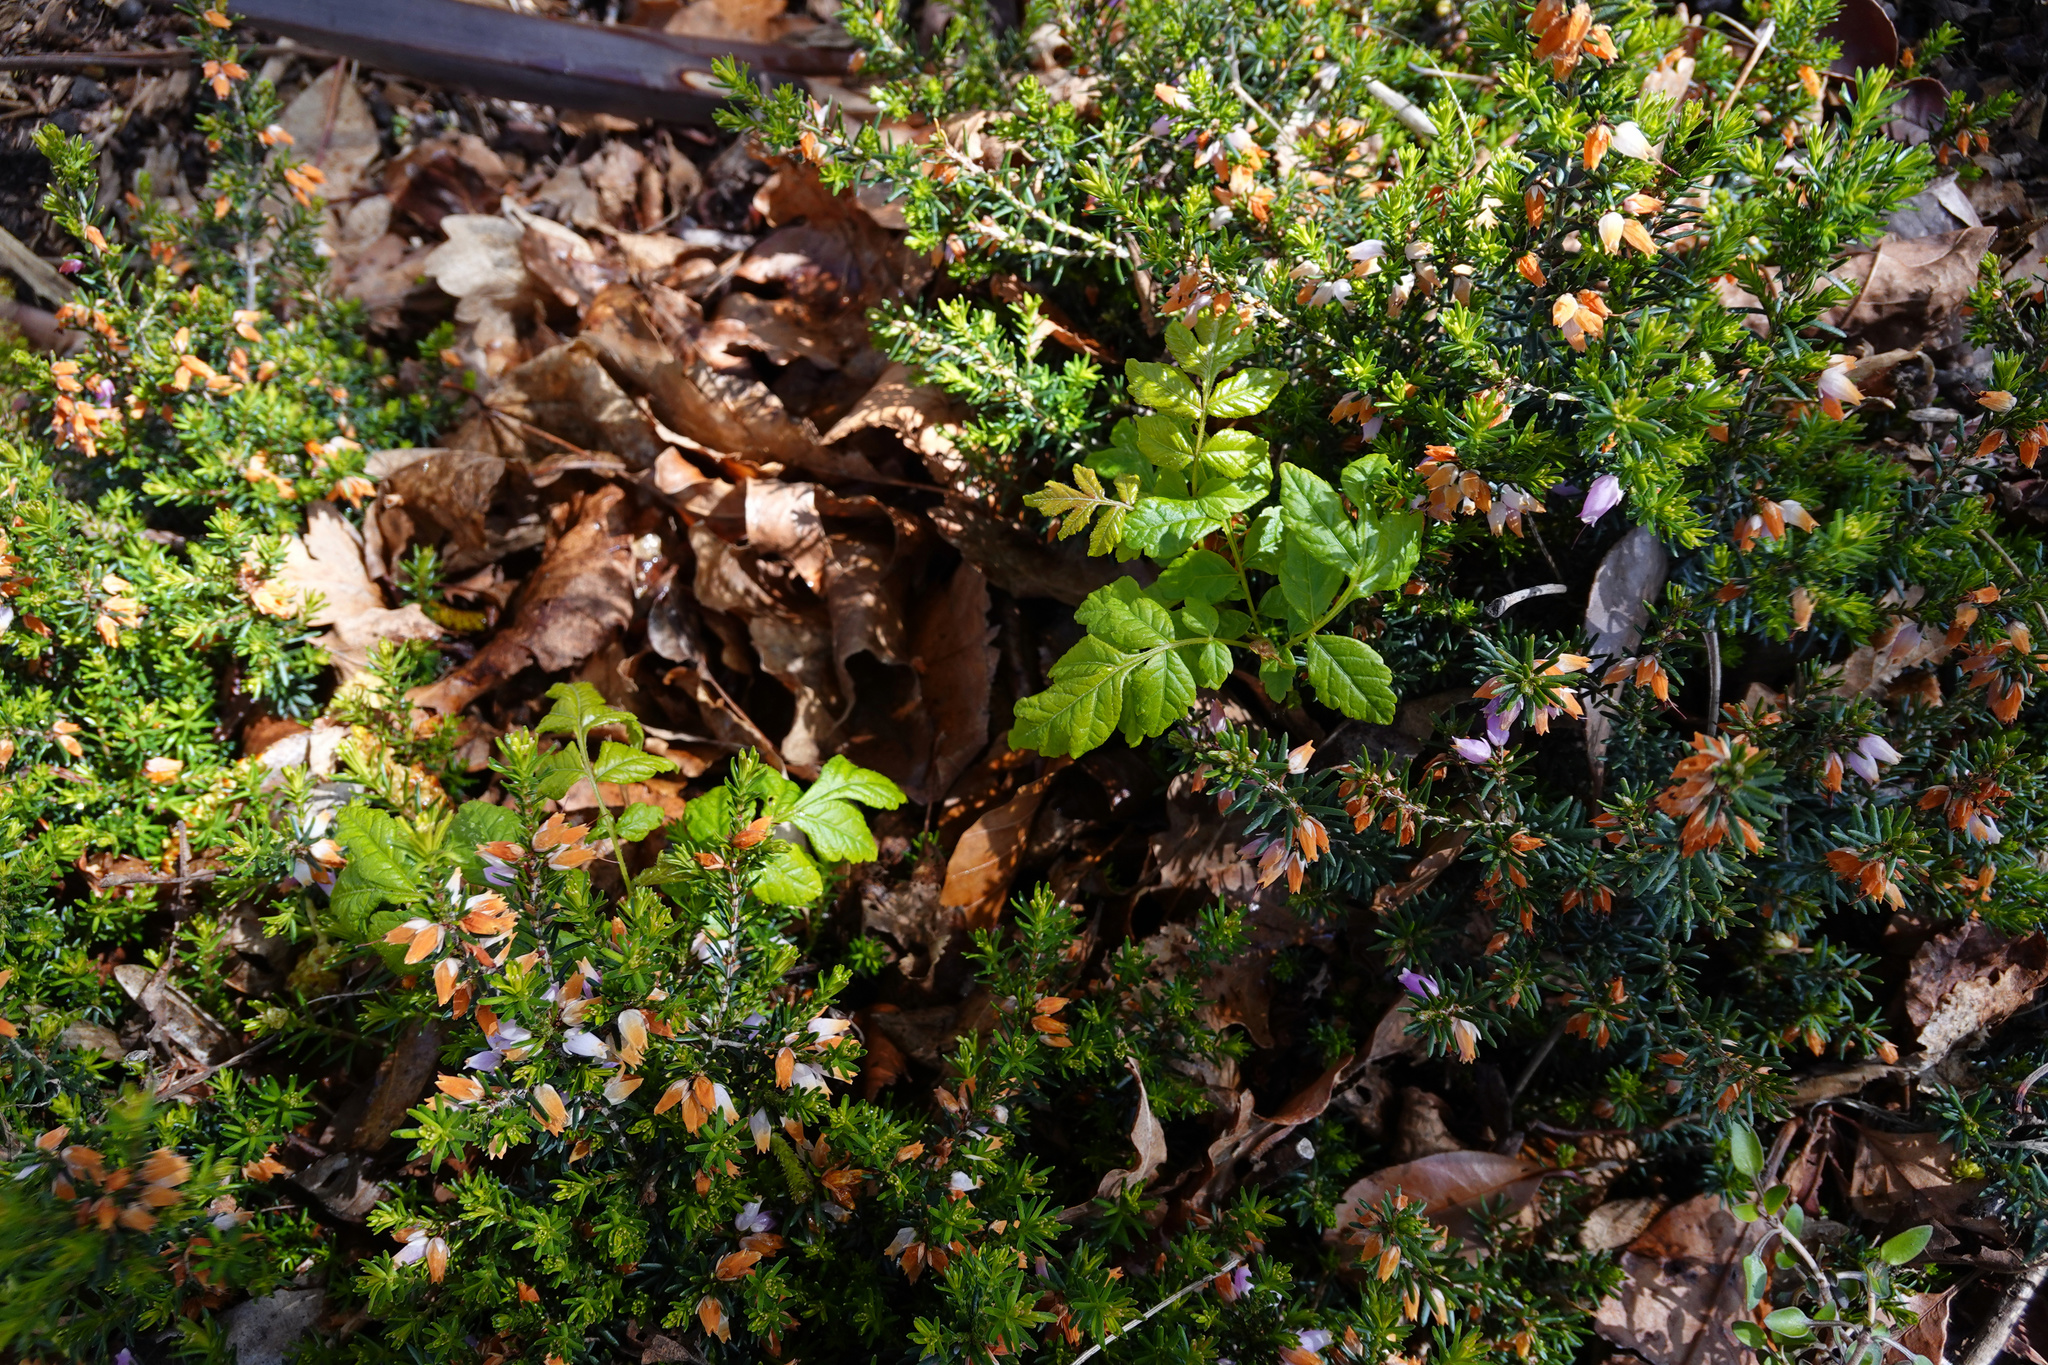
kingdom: Plantae
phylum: Tracheophyta
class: Magnoliopsida
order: Sapindales
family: Sapindaceae
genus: Koelreuteria
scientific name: Koelreuteria paniculata
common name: Pride-of-india
